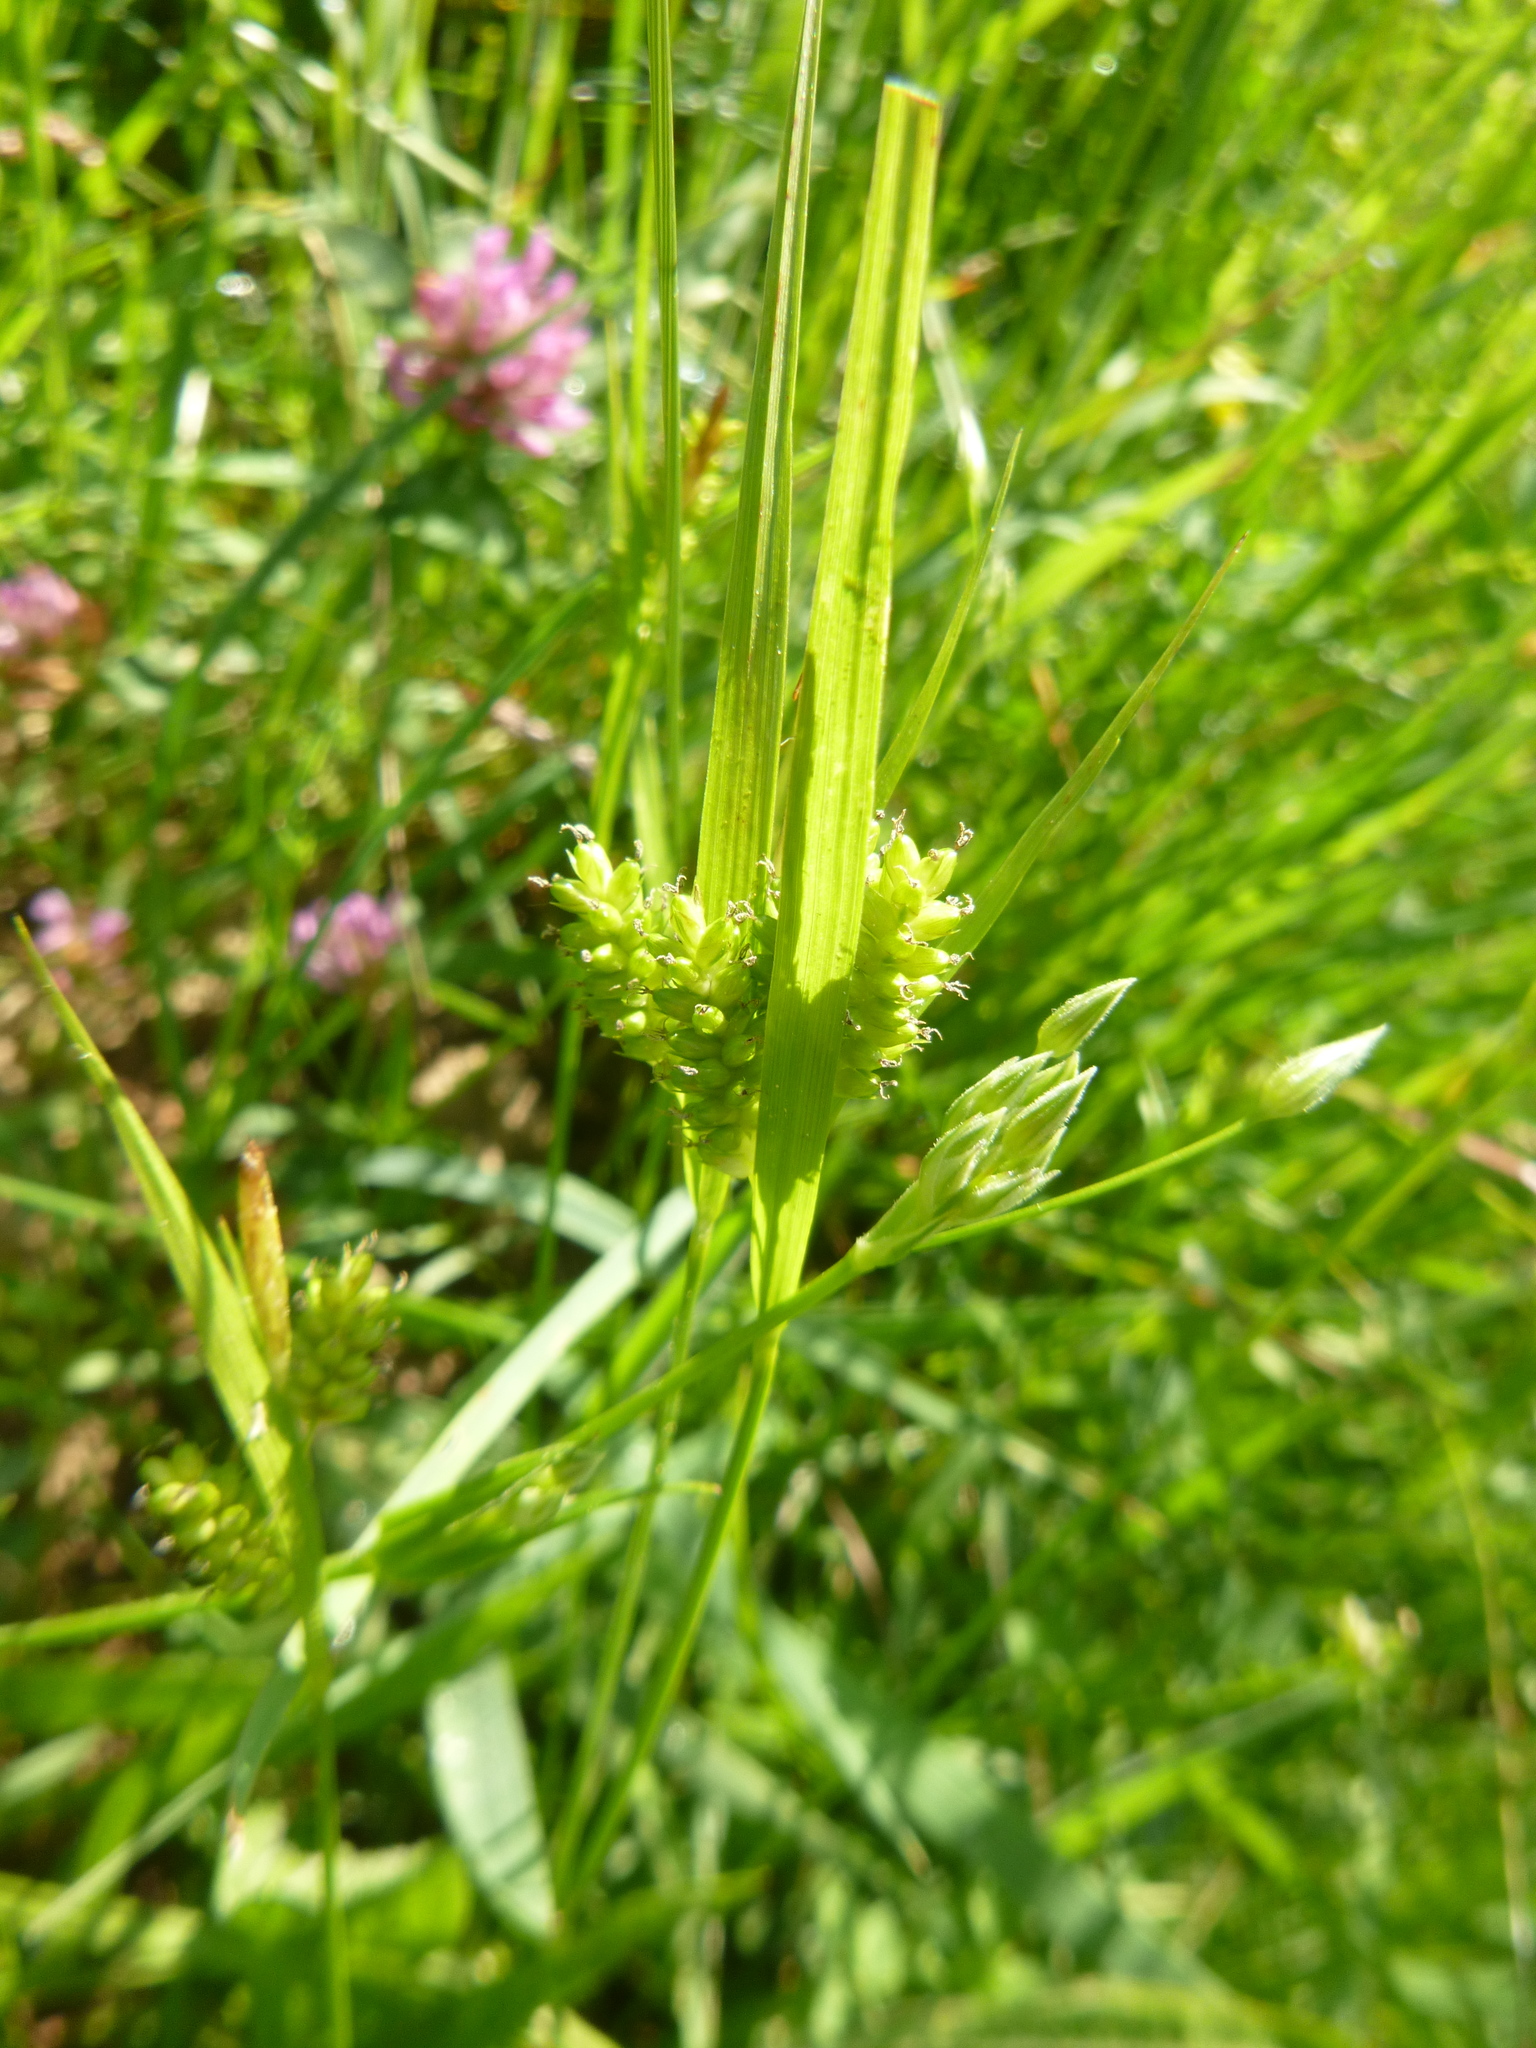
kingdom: Plantae
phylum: Tracheophyta
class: Liliopsida
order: Poales
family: Cyperaceae
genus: Carex
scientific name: Carex pallescens
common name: Pale sedge
